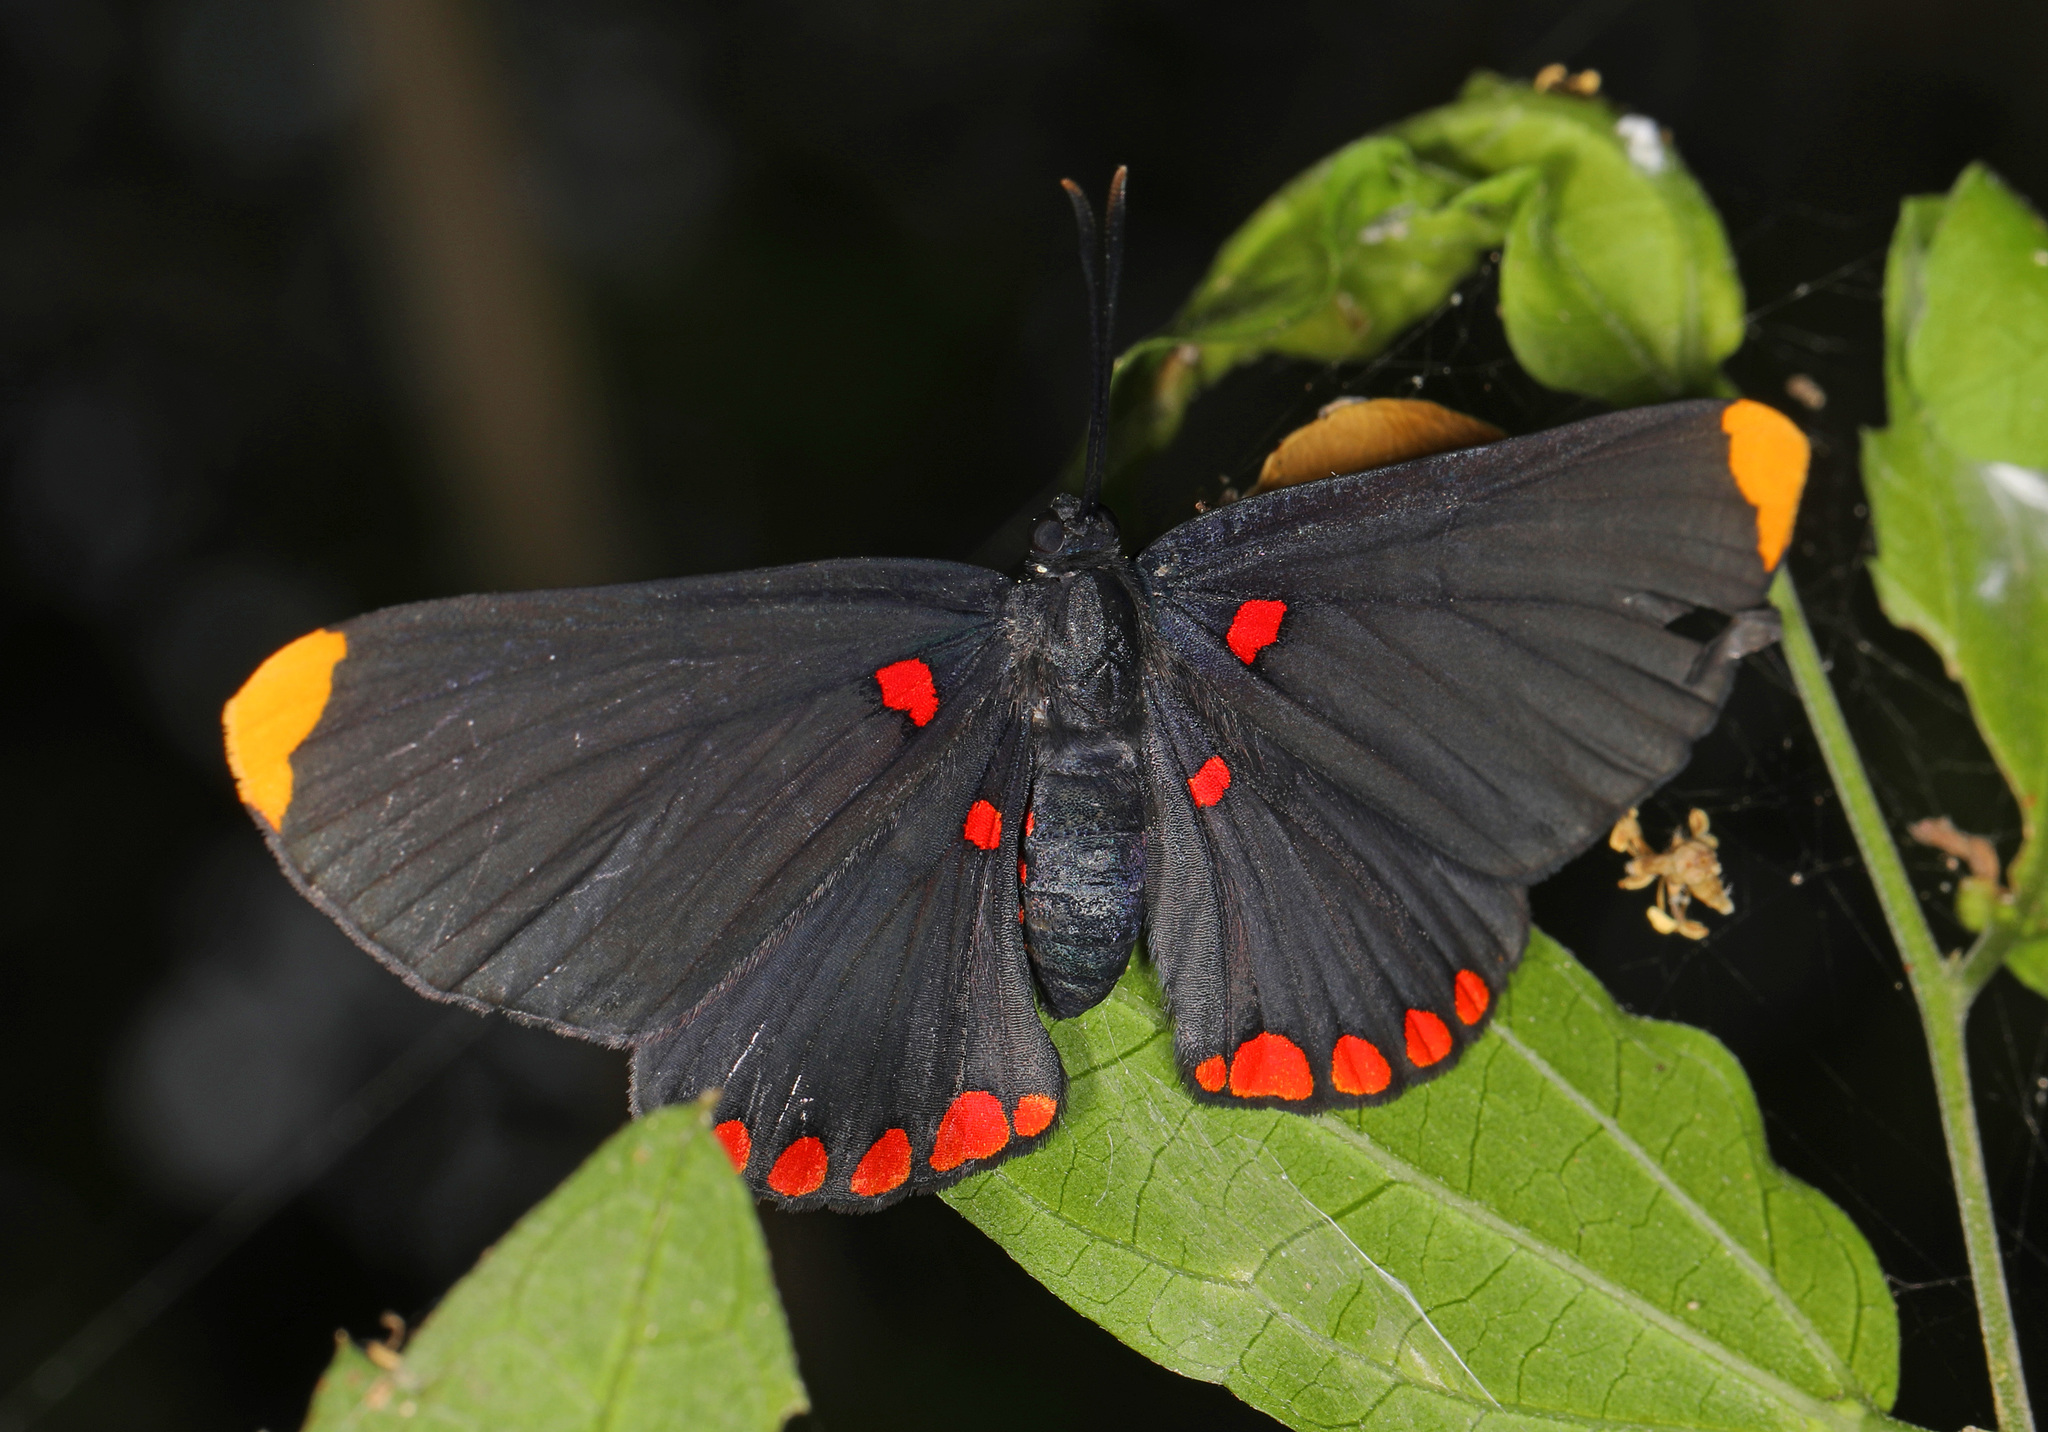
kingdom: Animalia
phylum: Arthropoda
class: Insecta
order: Lepidoptera
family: Lycaenidae
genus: Melanis
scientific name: Melanis pixe
